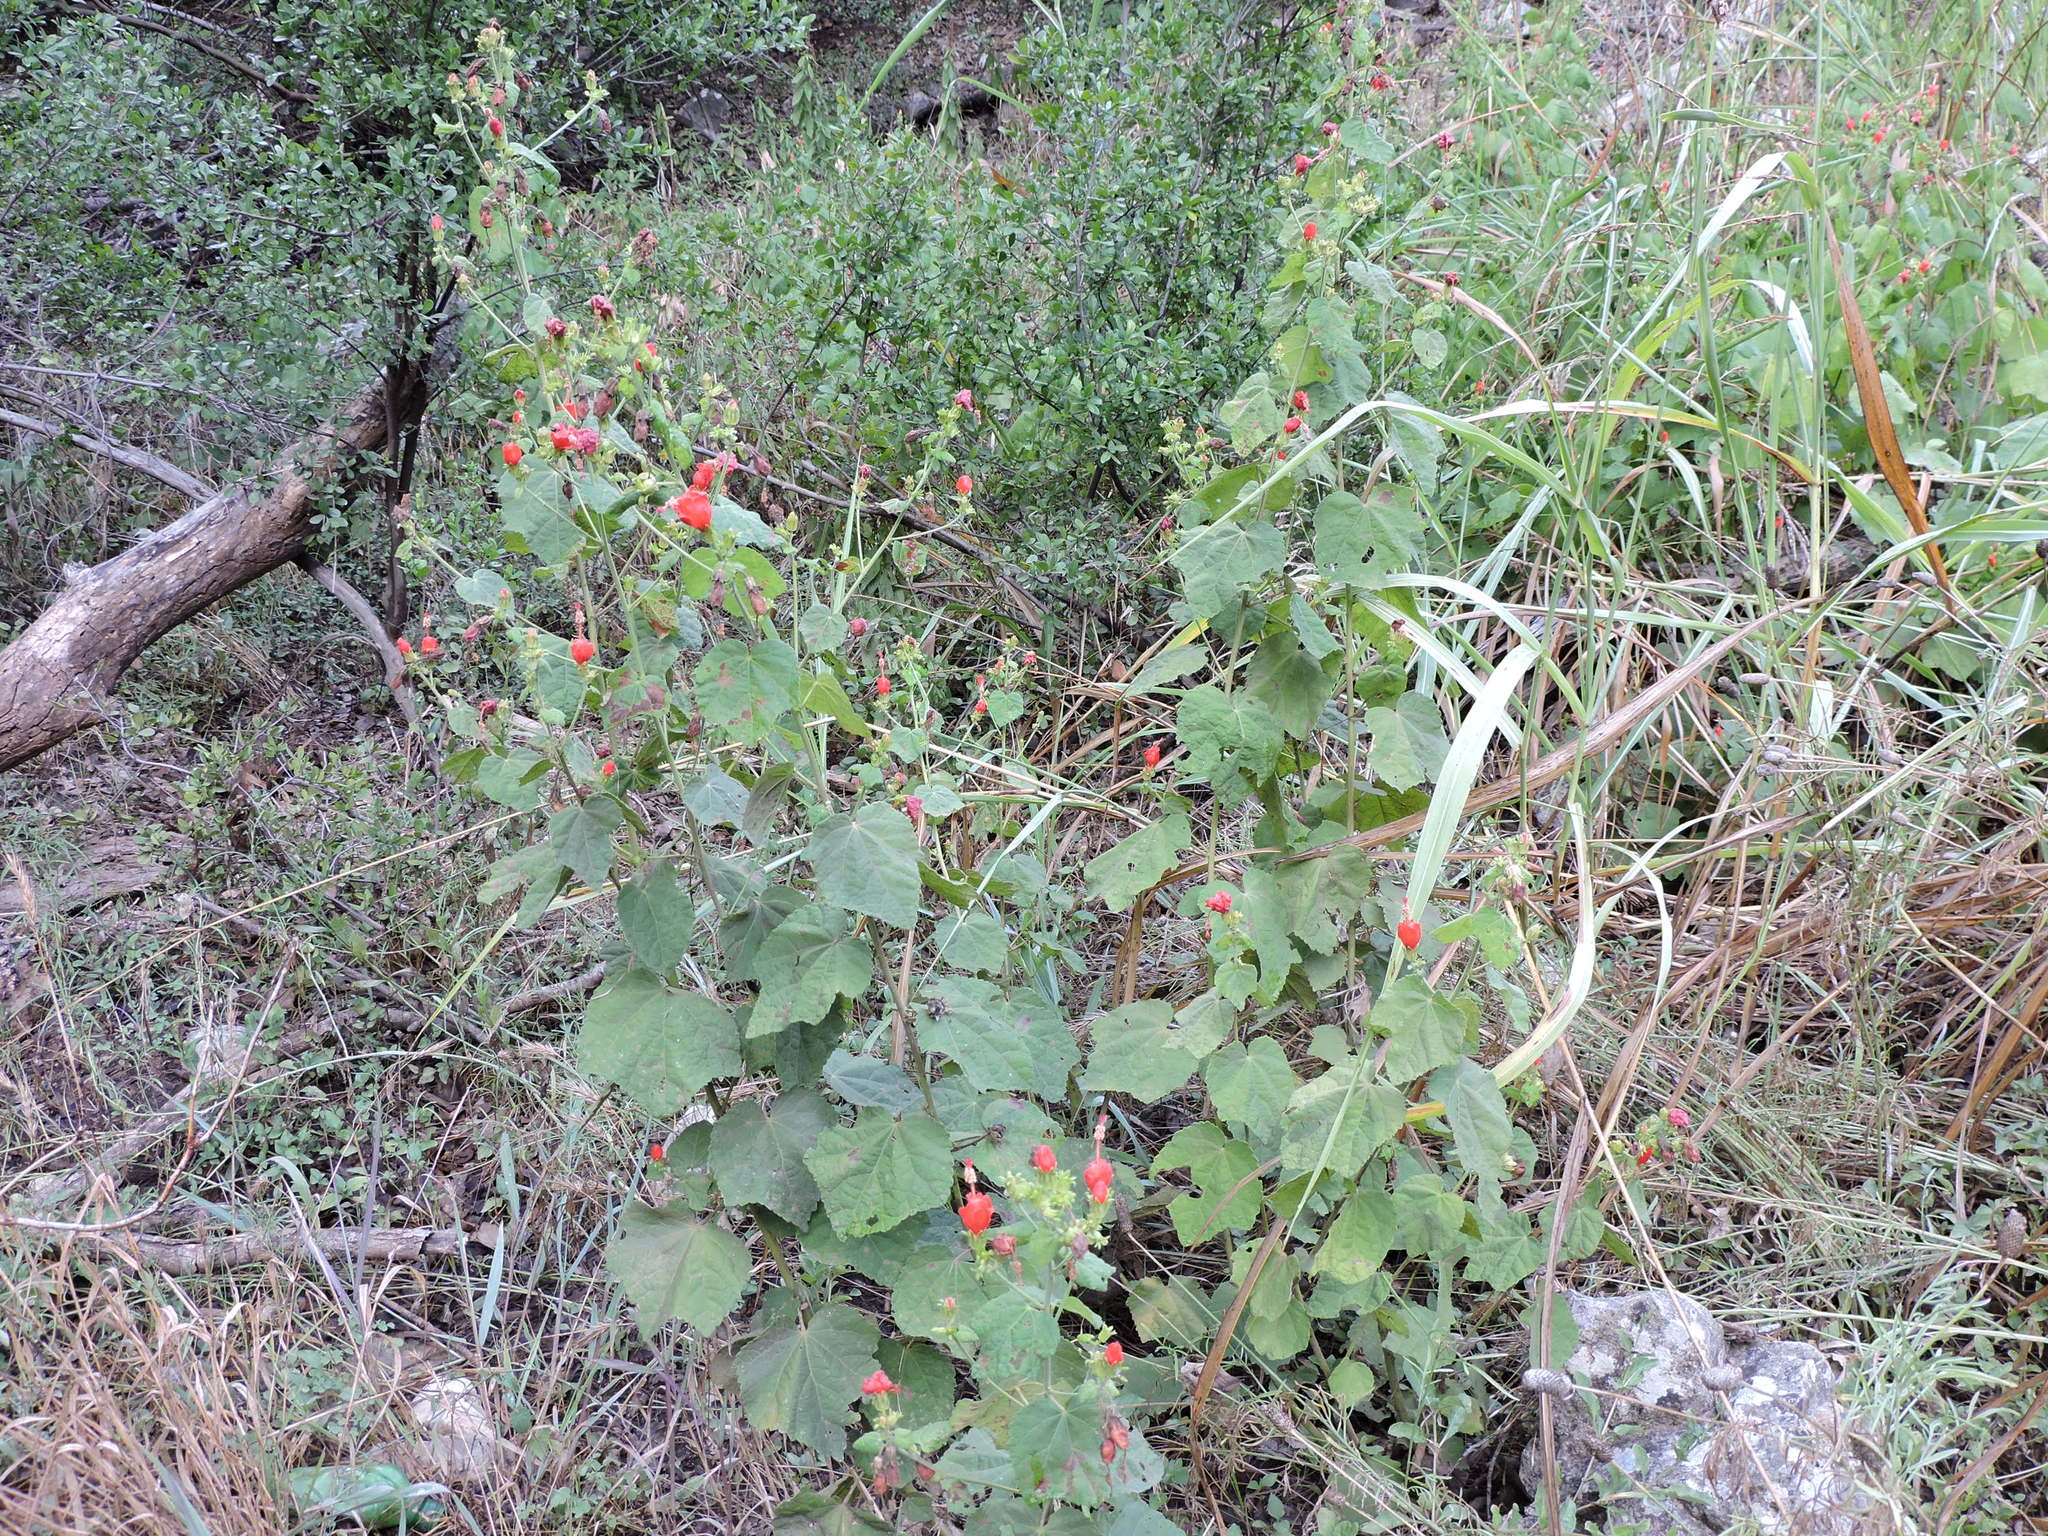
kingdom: Plantae
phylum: Tracheophyta
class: Magnoliopsida
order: Malvales
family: Malvaceae
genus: Malvaviscus
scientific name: Malvaviscus arboreus
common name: Wax mallow
